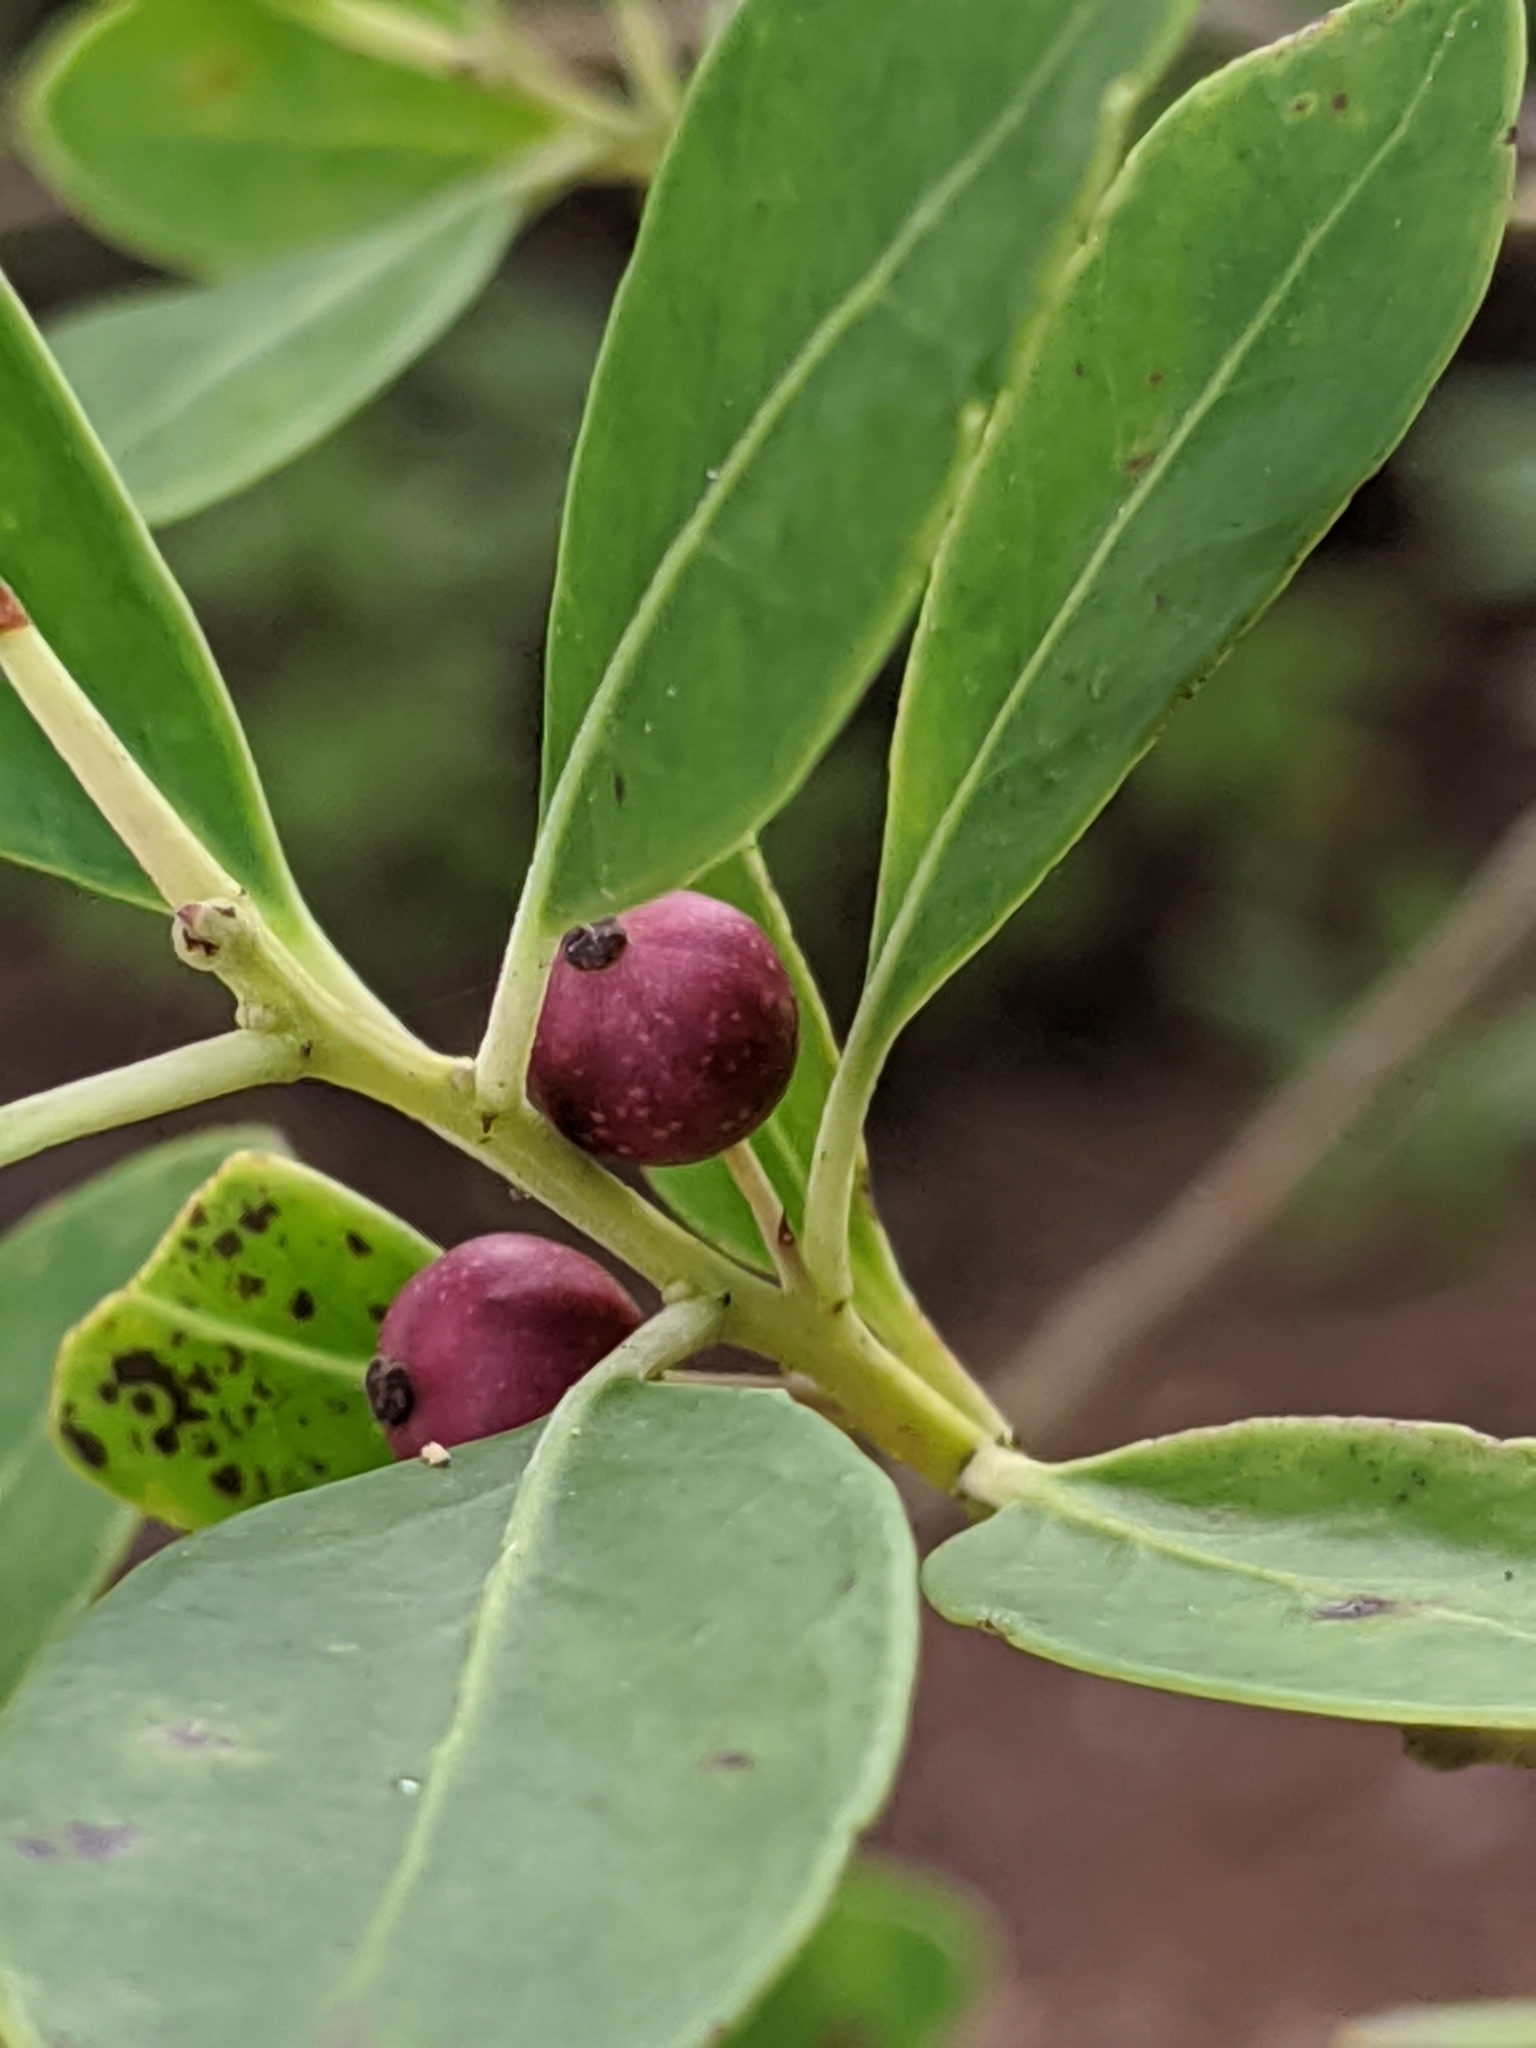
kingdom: Plantae
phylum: Tracheophyta
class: Magnoliopsida
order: Aquifoliales
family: Aquifoliaceae
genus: Ilex
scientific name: Ilex glabra
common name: Bitter gallberry
